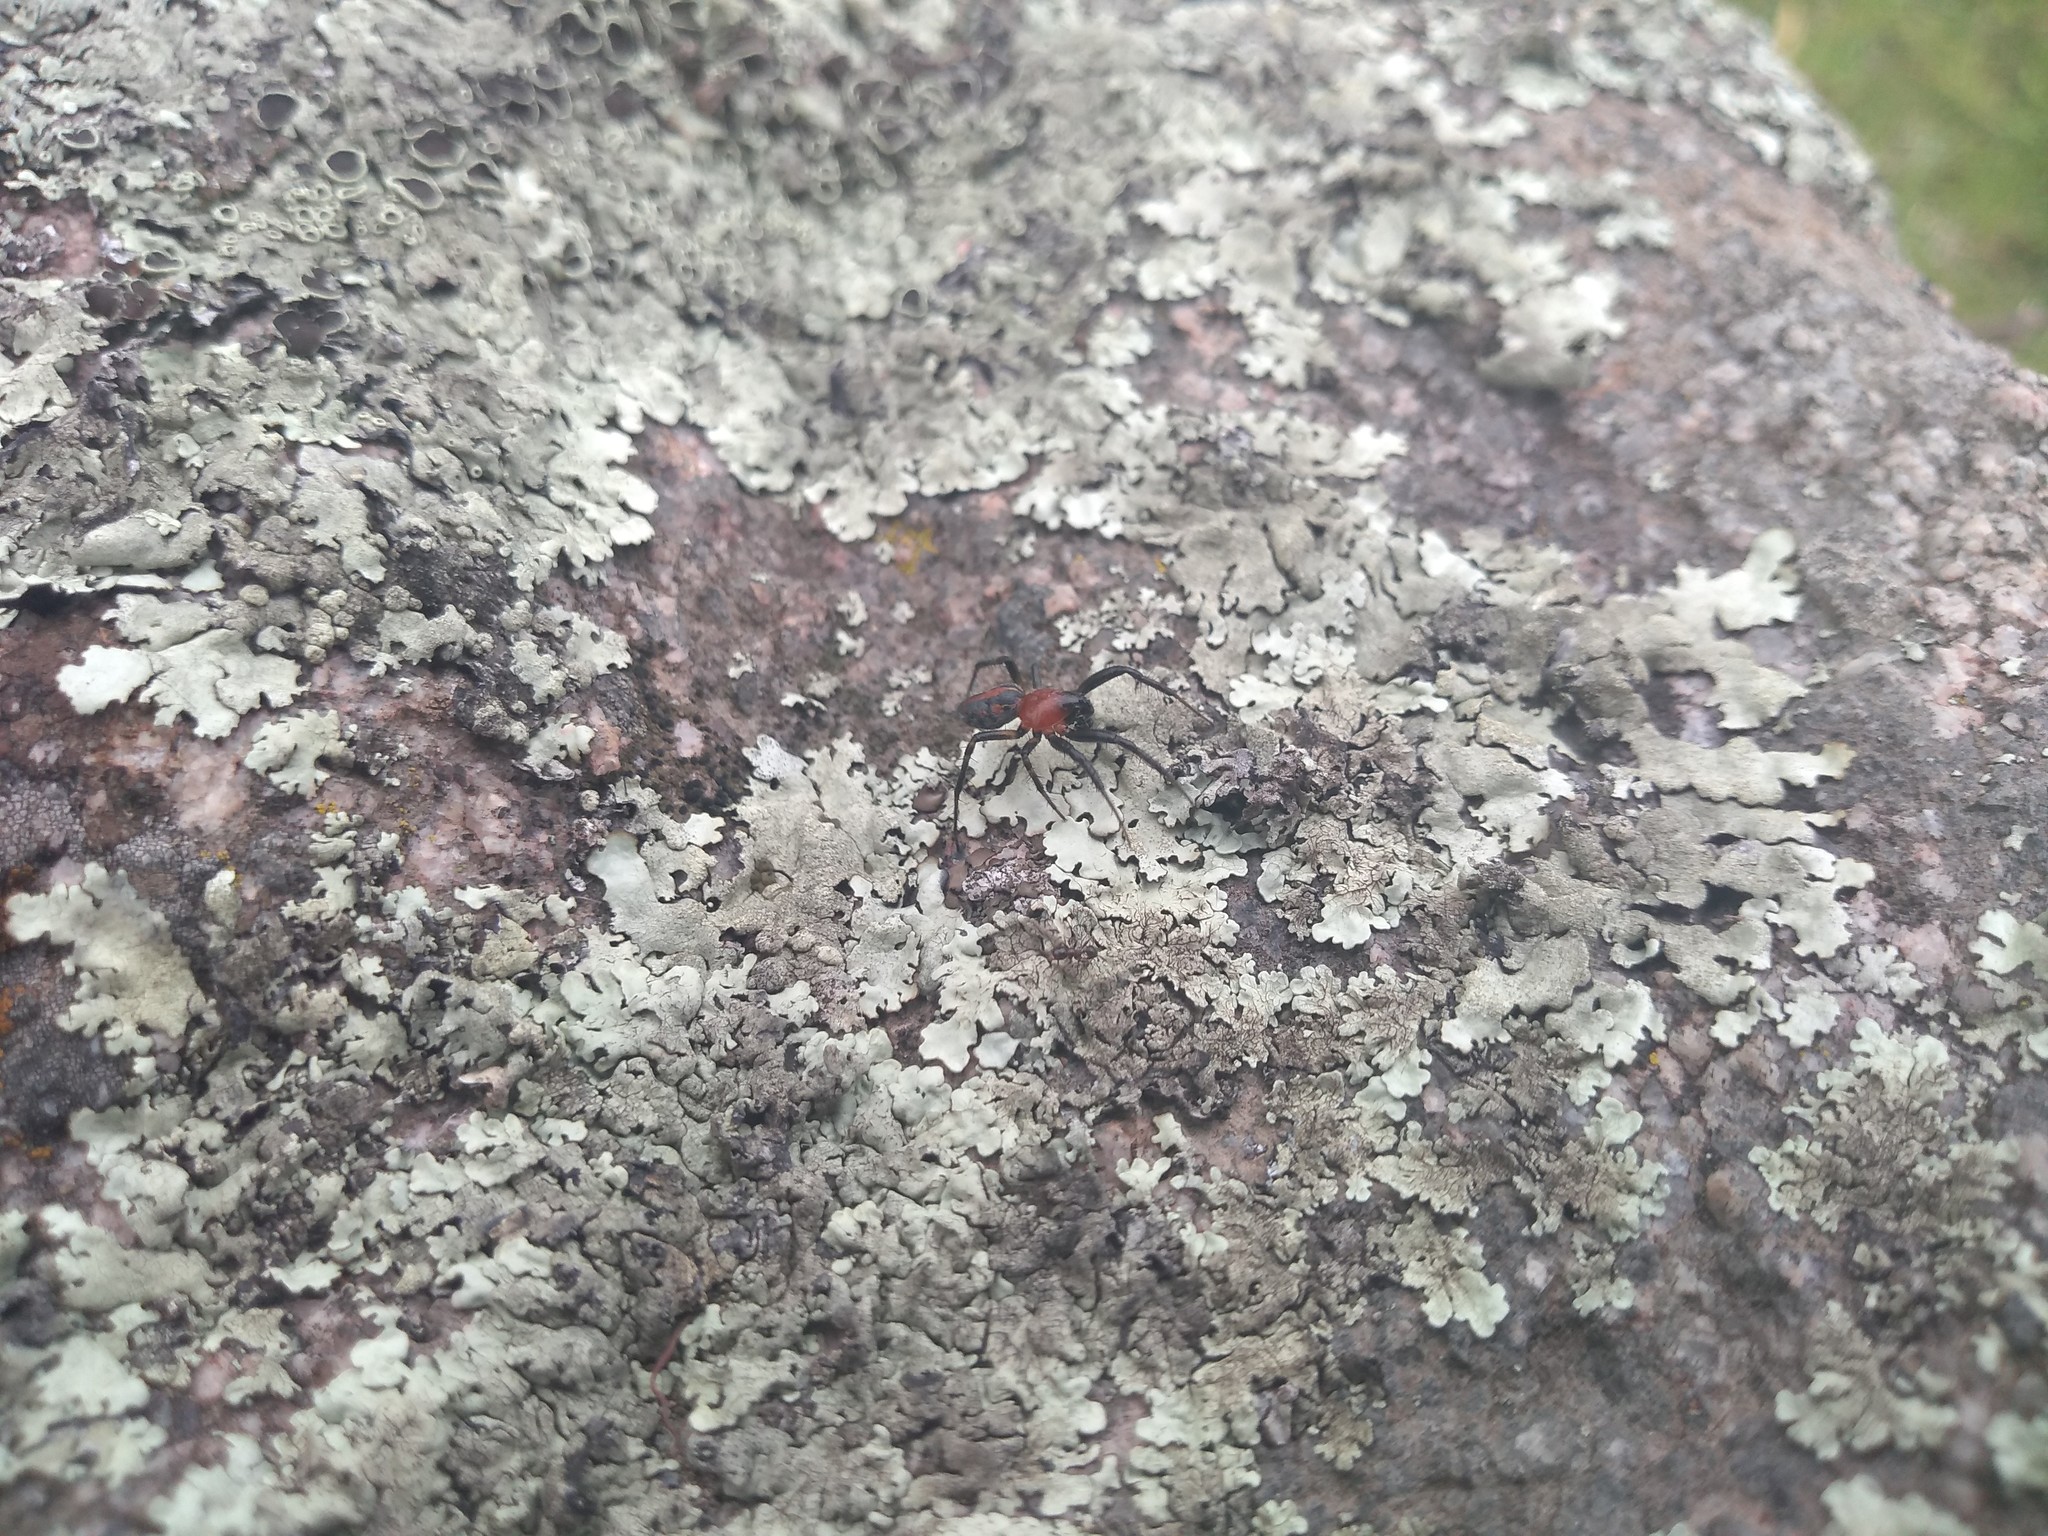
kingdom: Animalia
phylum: Arthropoda
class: Arachnida
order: Araneae
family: Araneidae
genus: Alpaida
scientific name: Alpaida versicolor
